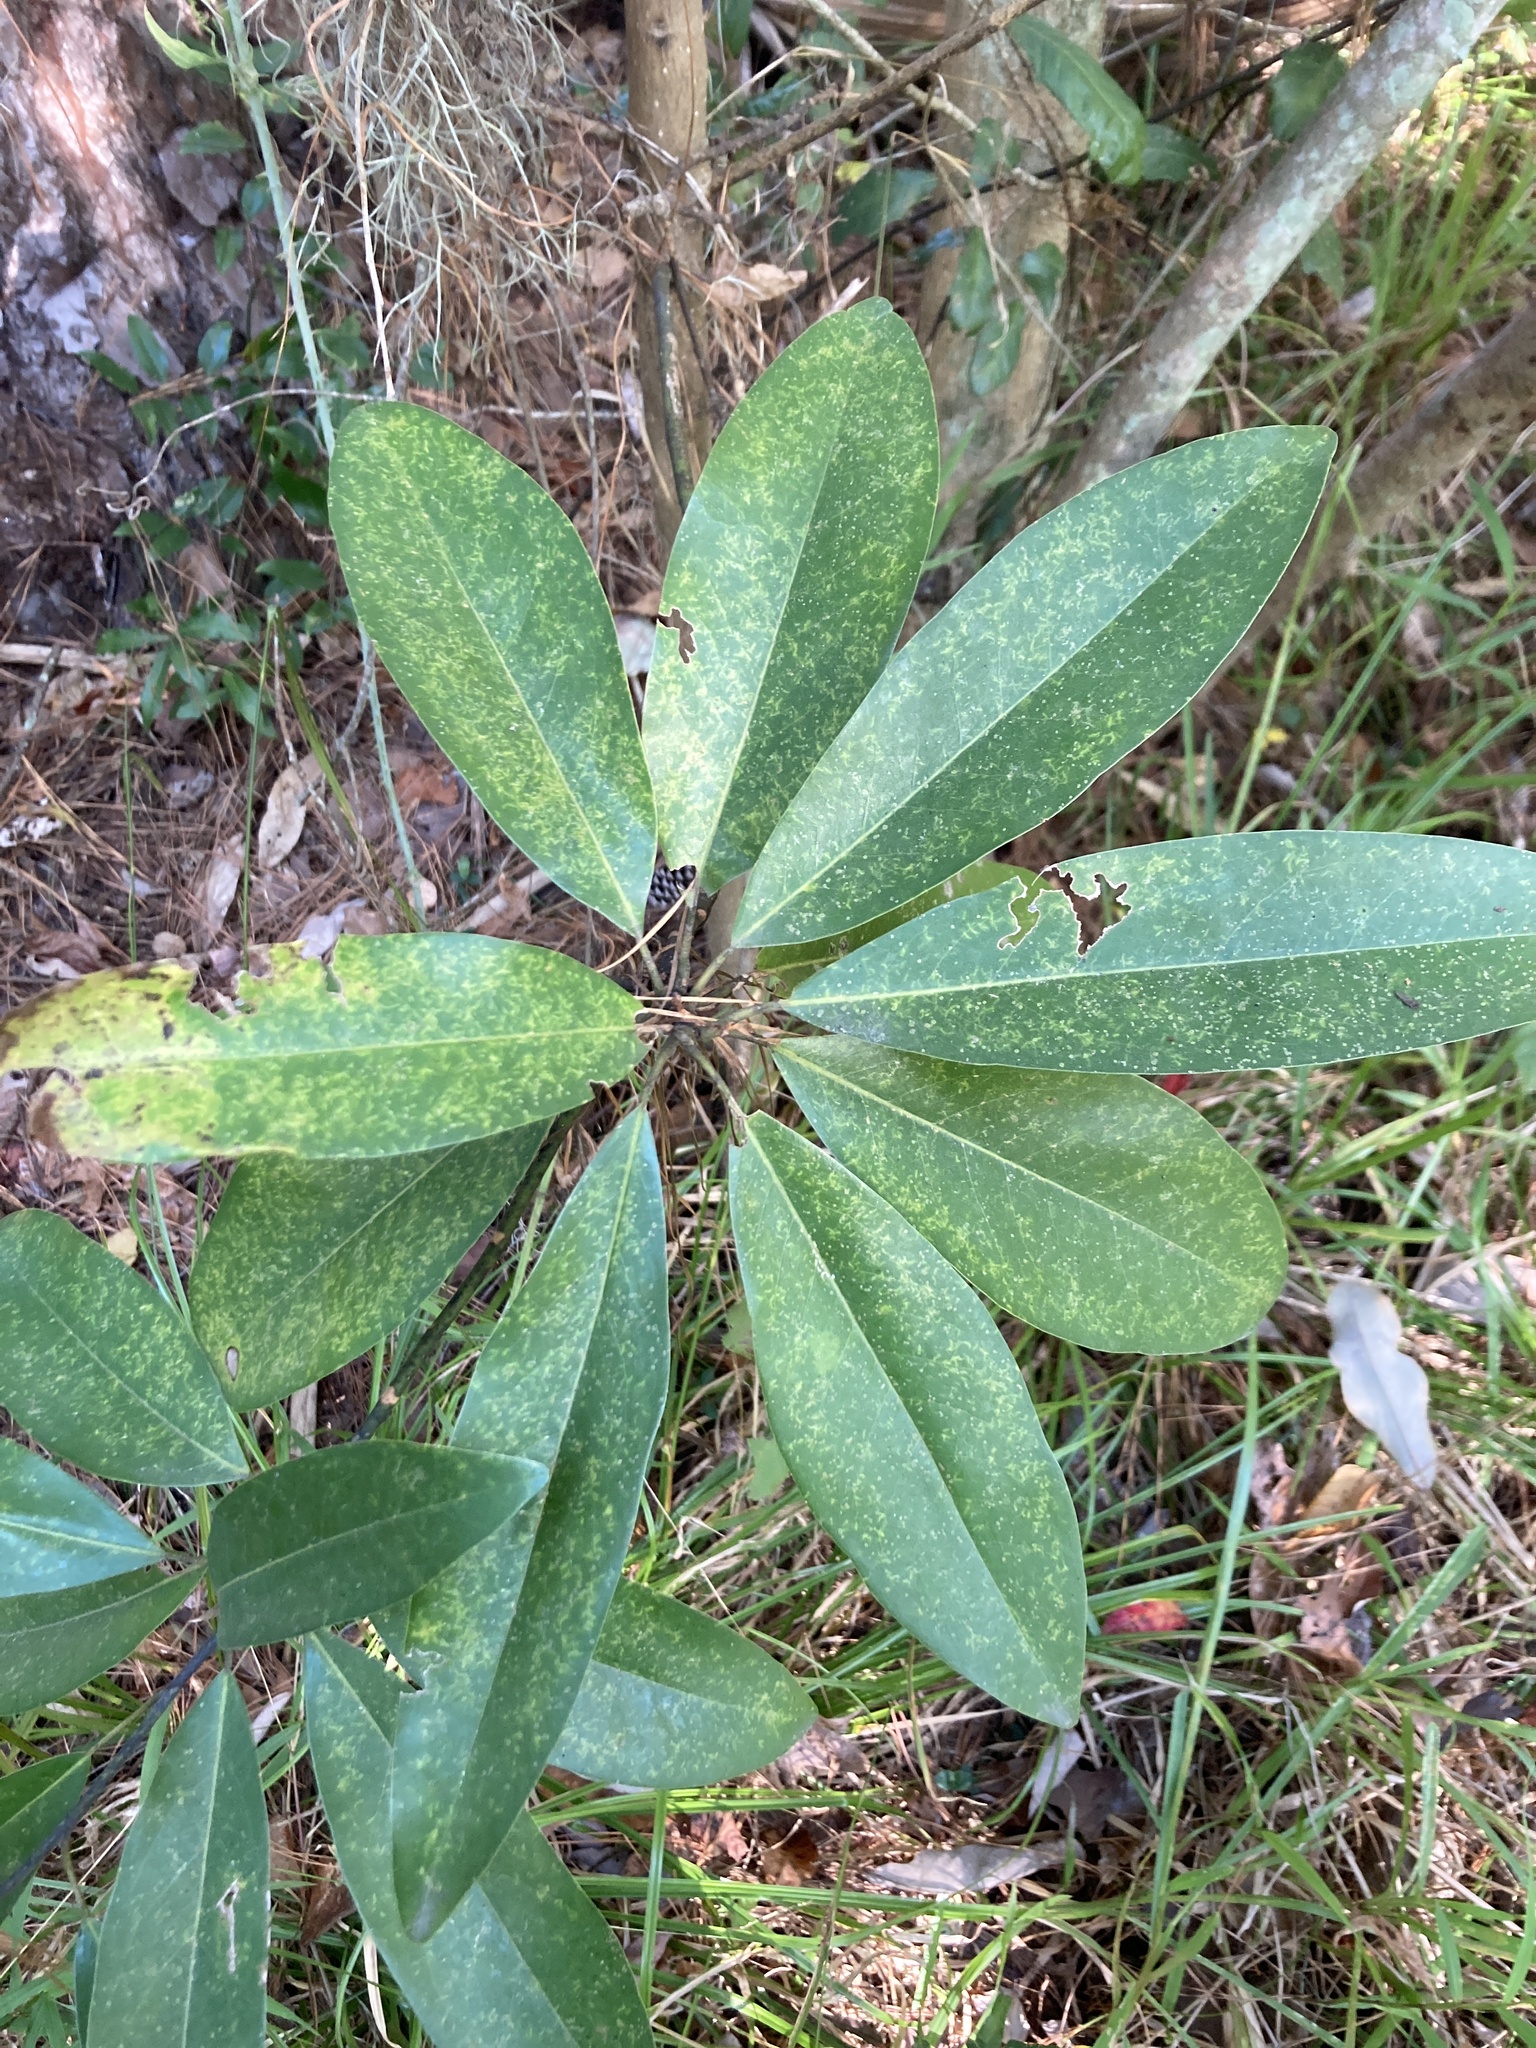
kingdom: Plantae
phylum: Tracheophyta
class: Magnoliopsida
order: Magnoliales
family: Magnoliaceae
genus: Magnolia
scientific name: Magnolia virginiana
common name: Swamp bay
